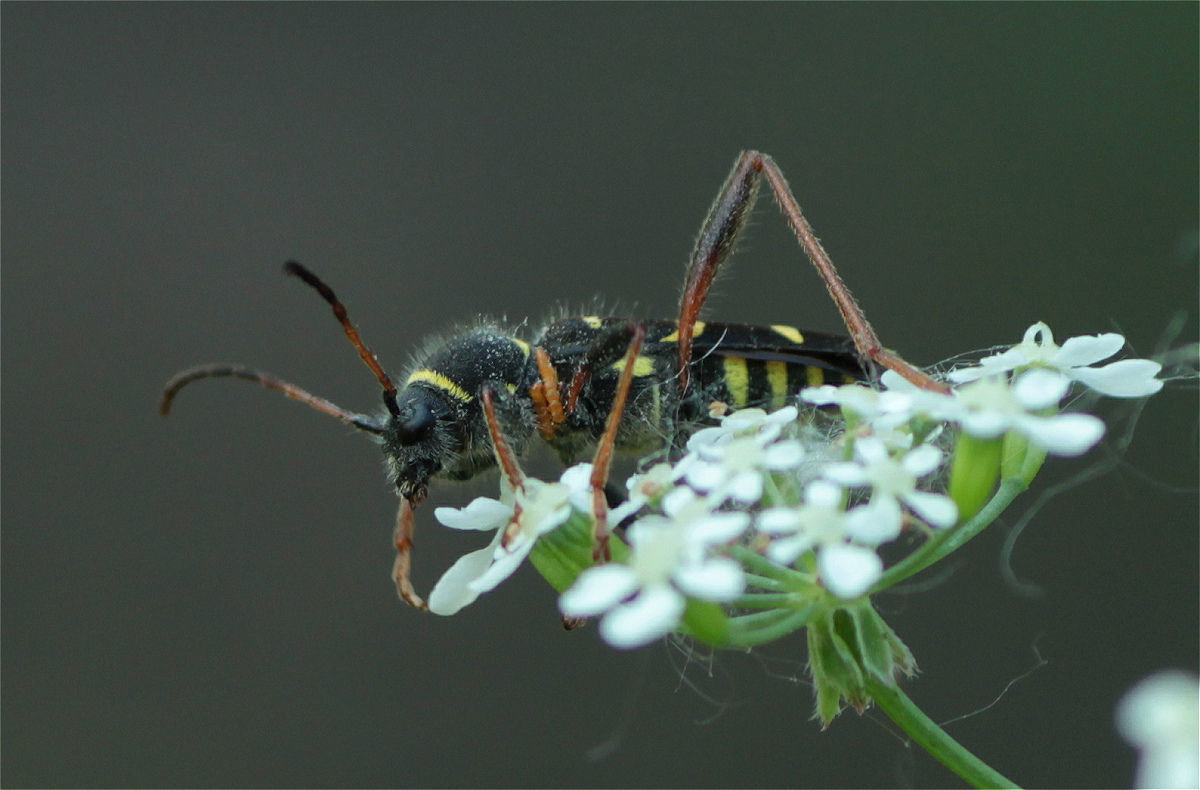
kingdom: Animalia
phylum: Arthropoda
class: Insecta
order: Coleoptera
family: Cerambycidae
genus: Clytus
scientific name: Clytus arietis
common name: Wasp beetle
